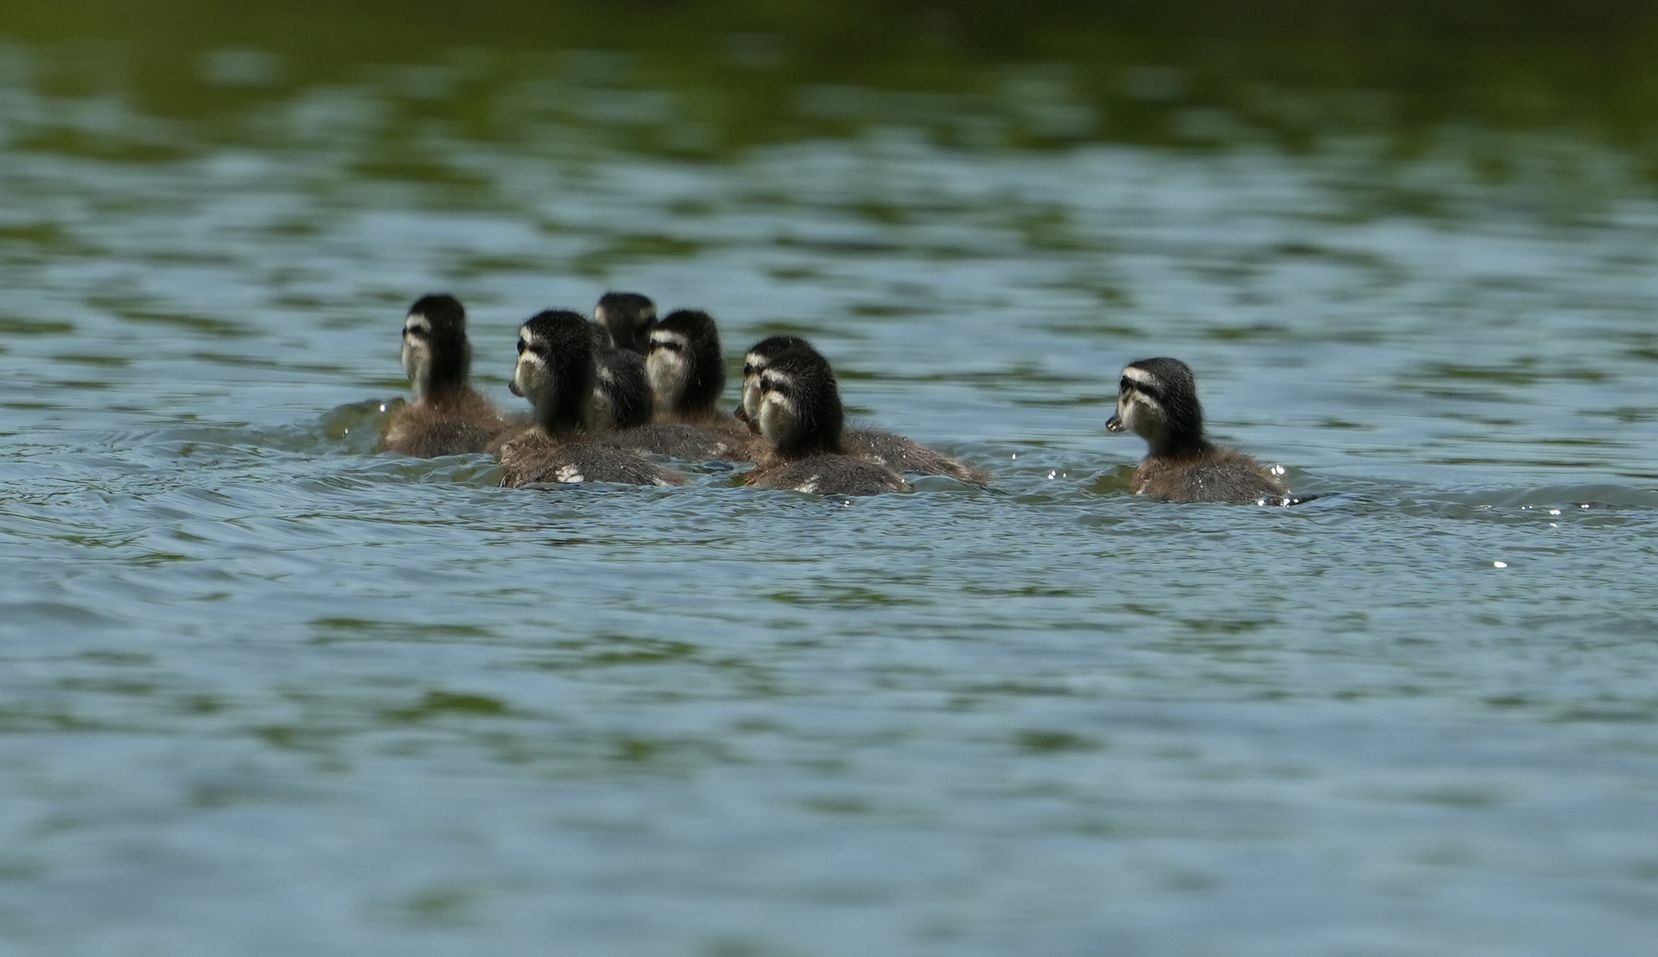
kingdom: Animalia
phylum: Chordata
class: Aves
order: Anseriformes
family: Anatidae
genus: Aix
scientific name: Aix sponsa
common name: Wood duck
